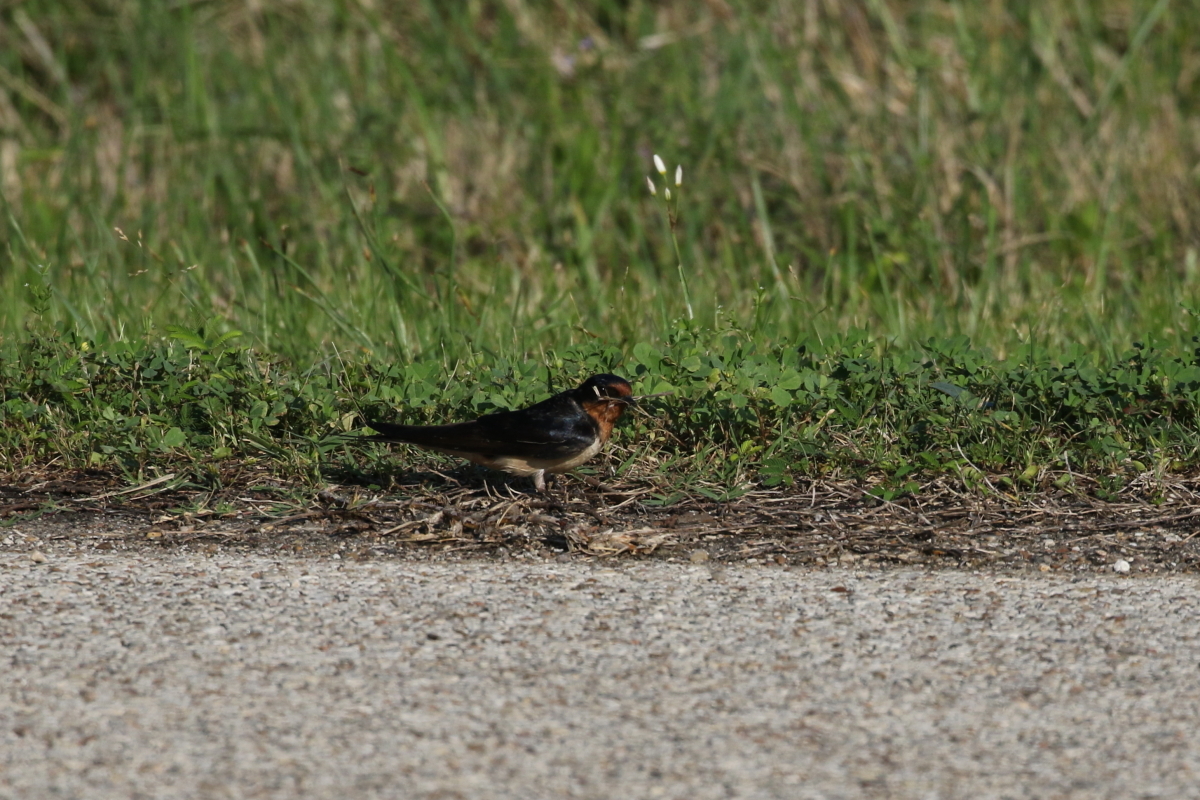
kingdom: Animalia
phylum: Chordata
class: Aves
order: Passeriformes
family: Hirundinidae
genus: Hirundo
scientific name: Hirundo rustica
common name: Barn swallow
